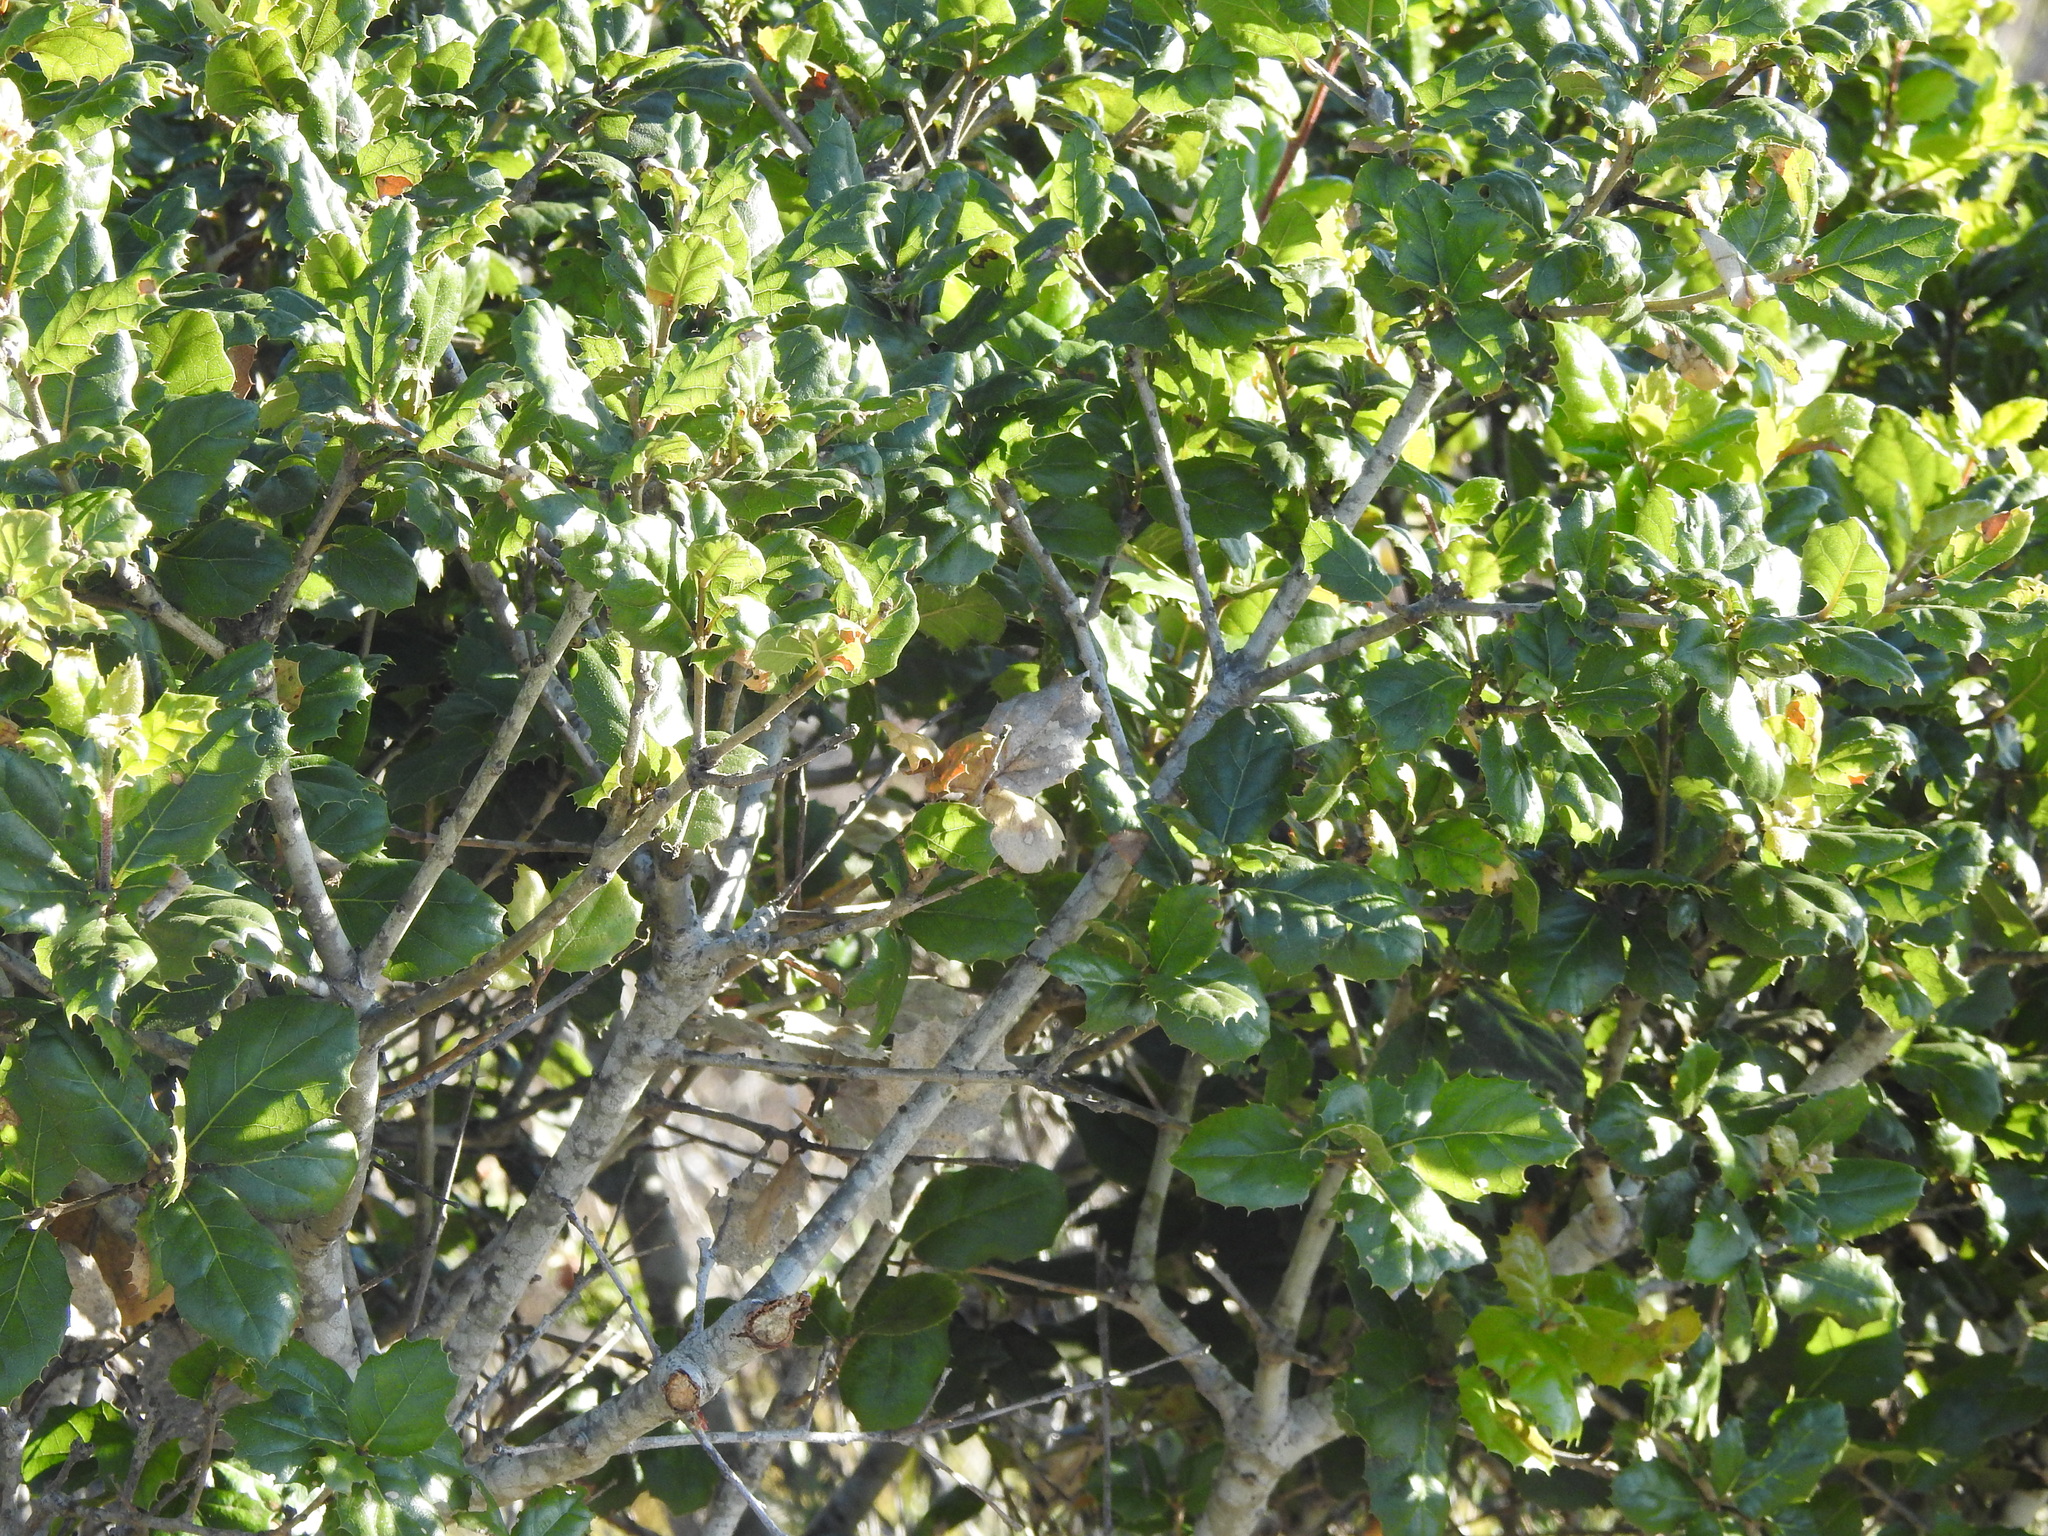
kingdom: Plantae
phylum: Tracheophyta
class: Magnoliopsida
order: Fagales
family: Fagaceae
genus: Quercus
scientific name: Quercus agrifolia
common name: California live oak
